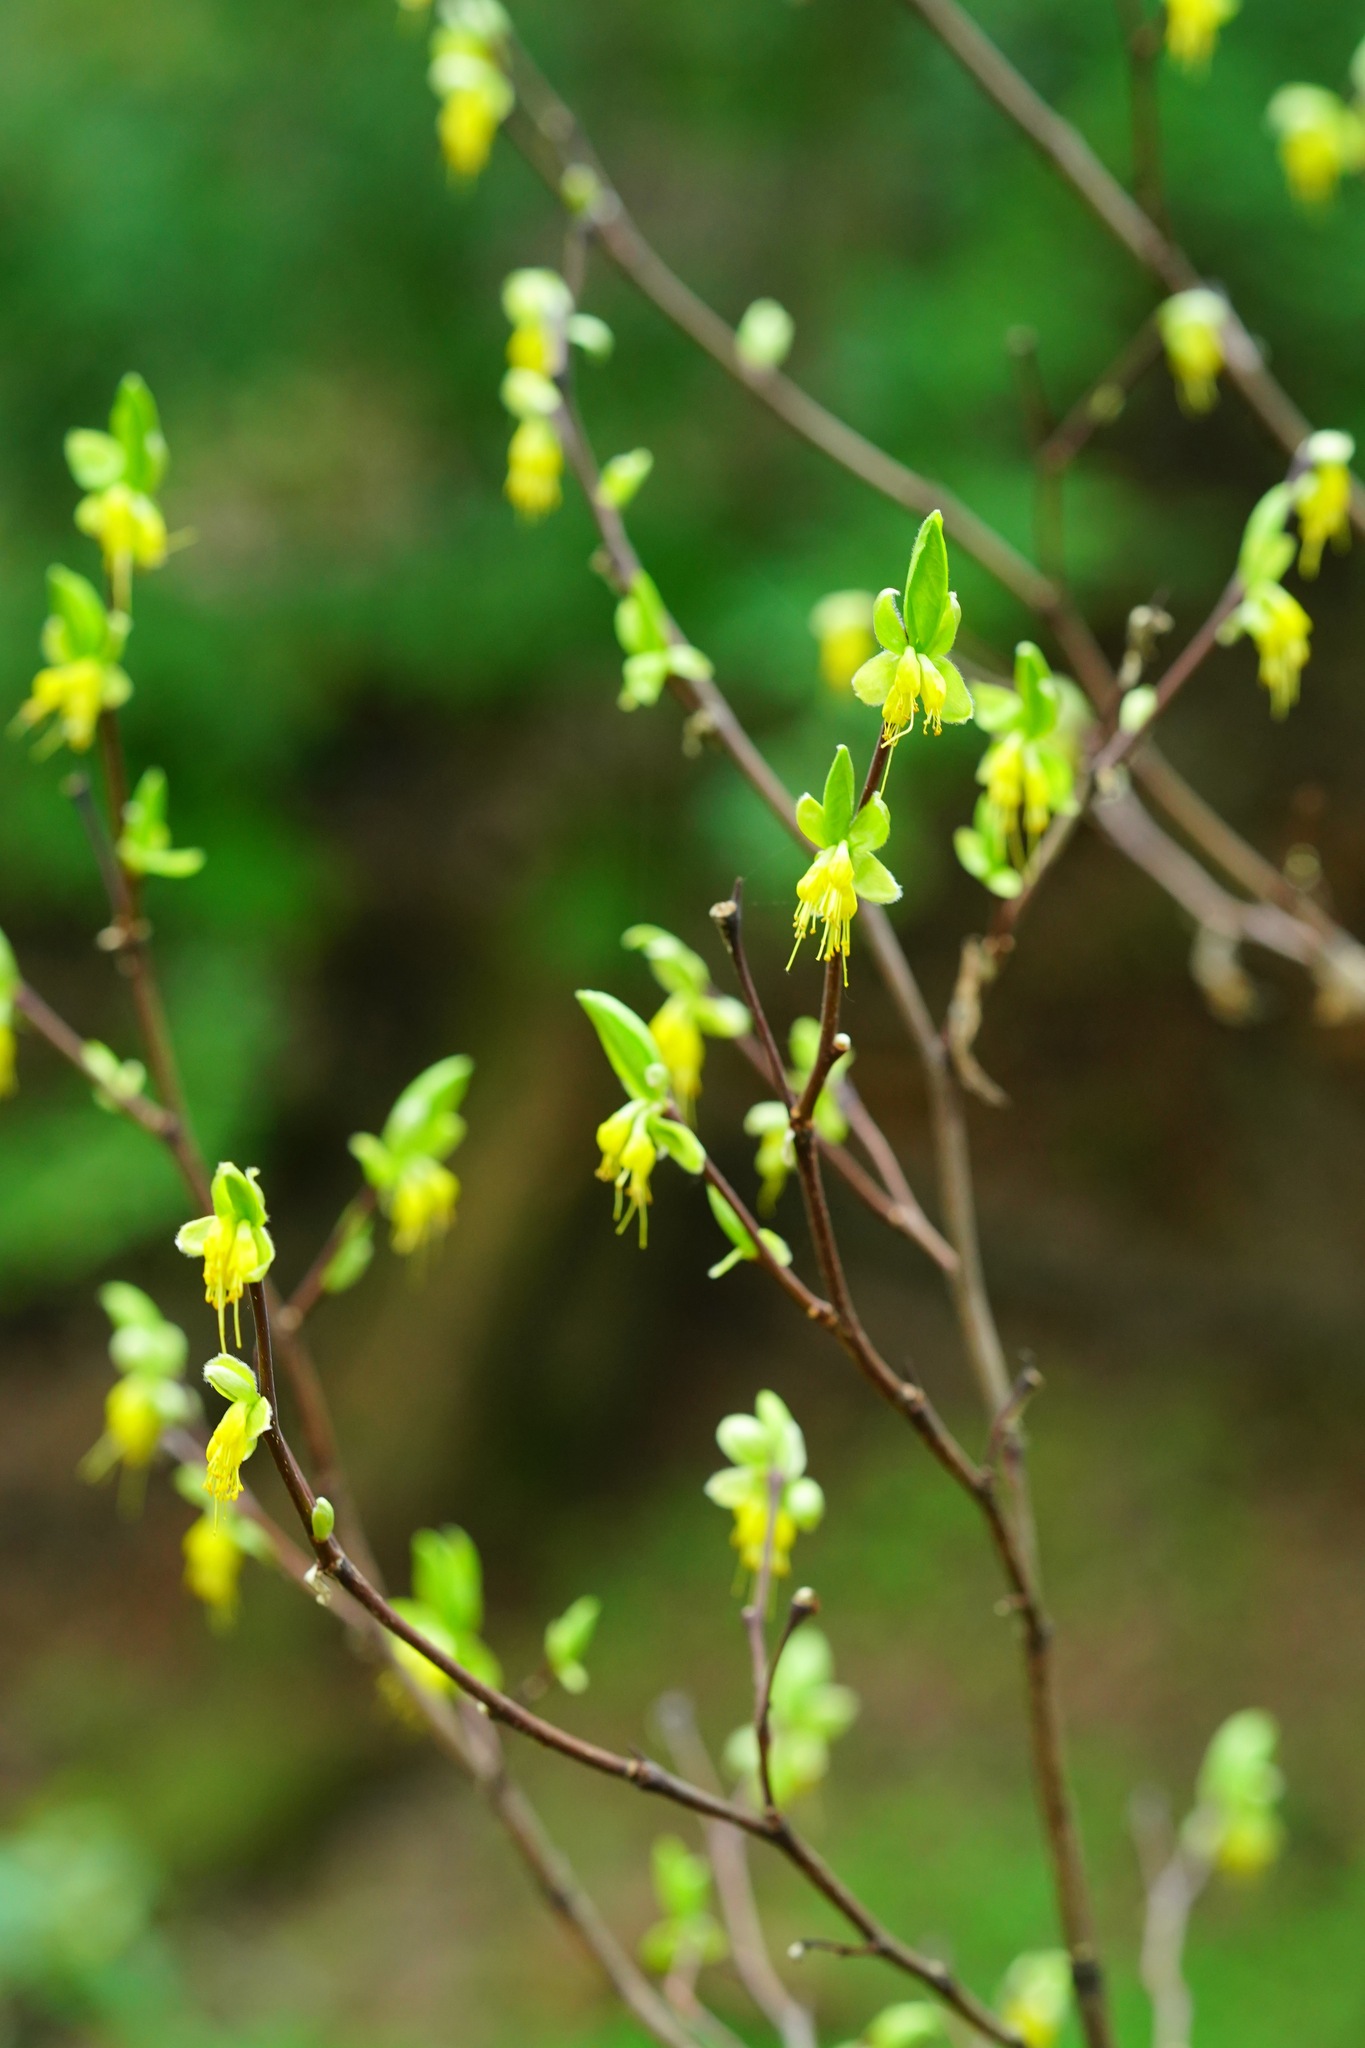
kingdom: Plantae
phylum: Tracheophyta
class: Magnoliopsida
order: Malvales
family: Thymelaeaceae
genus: Dirca
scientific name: Dirca occidentalis
